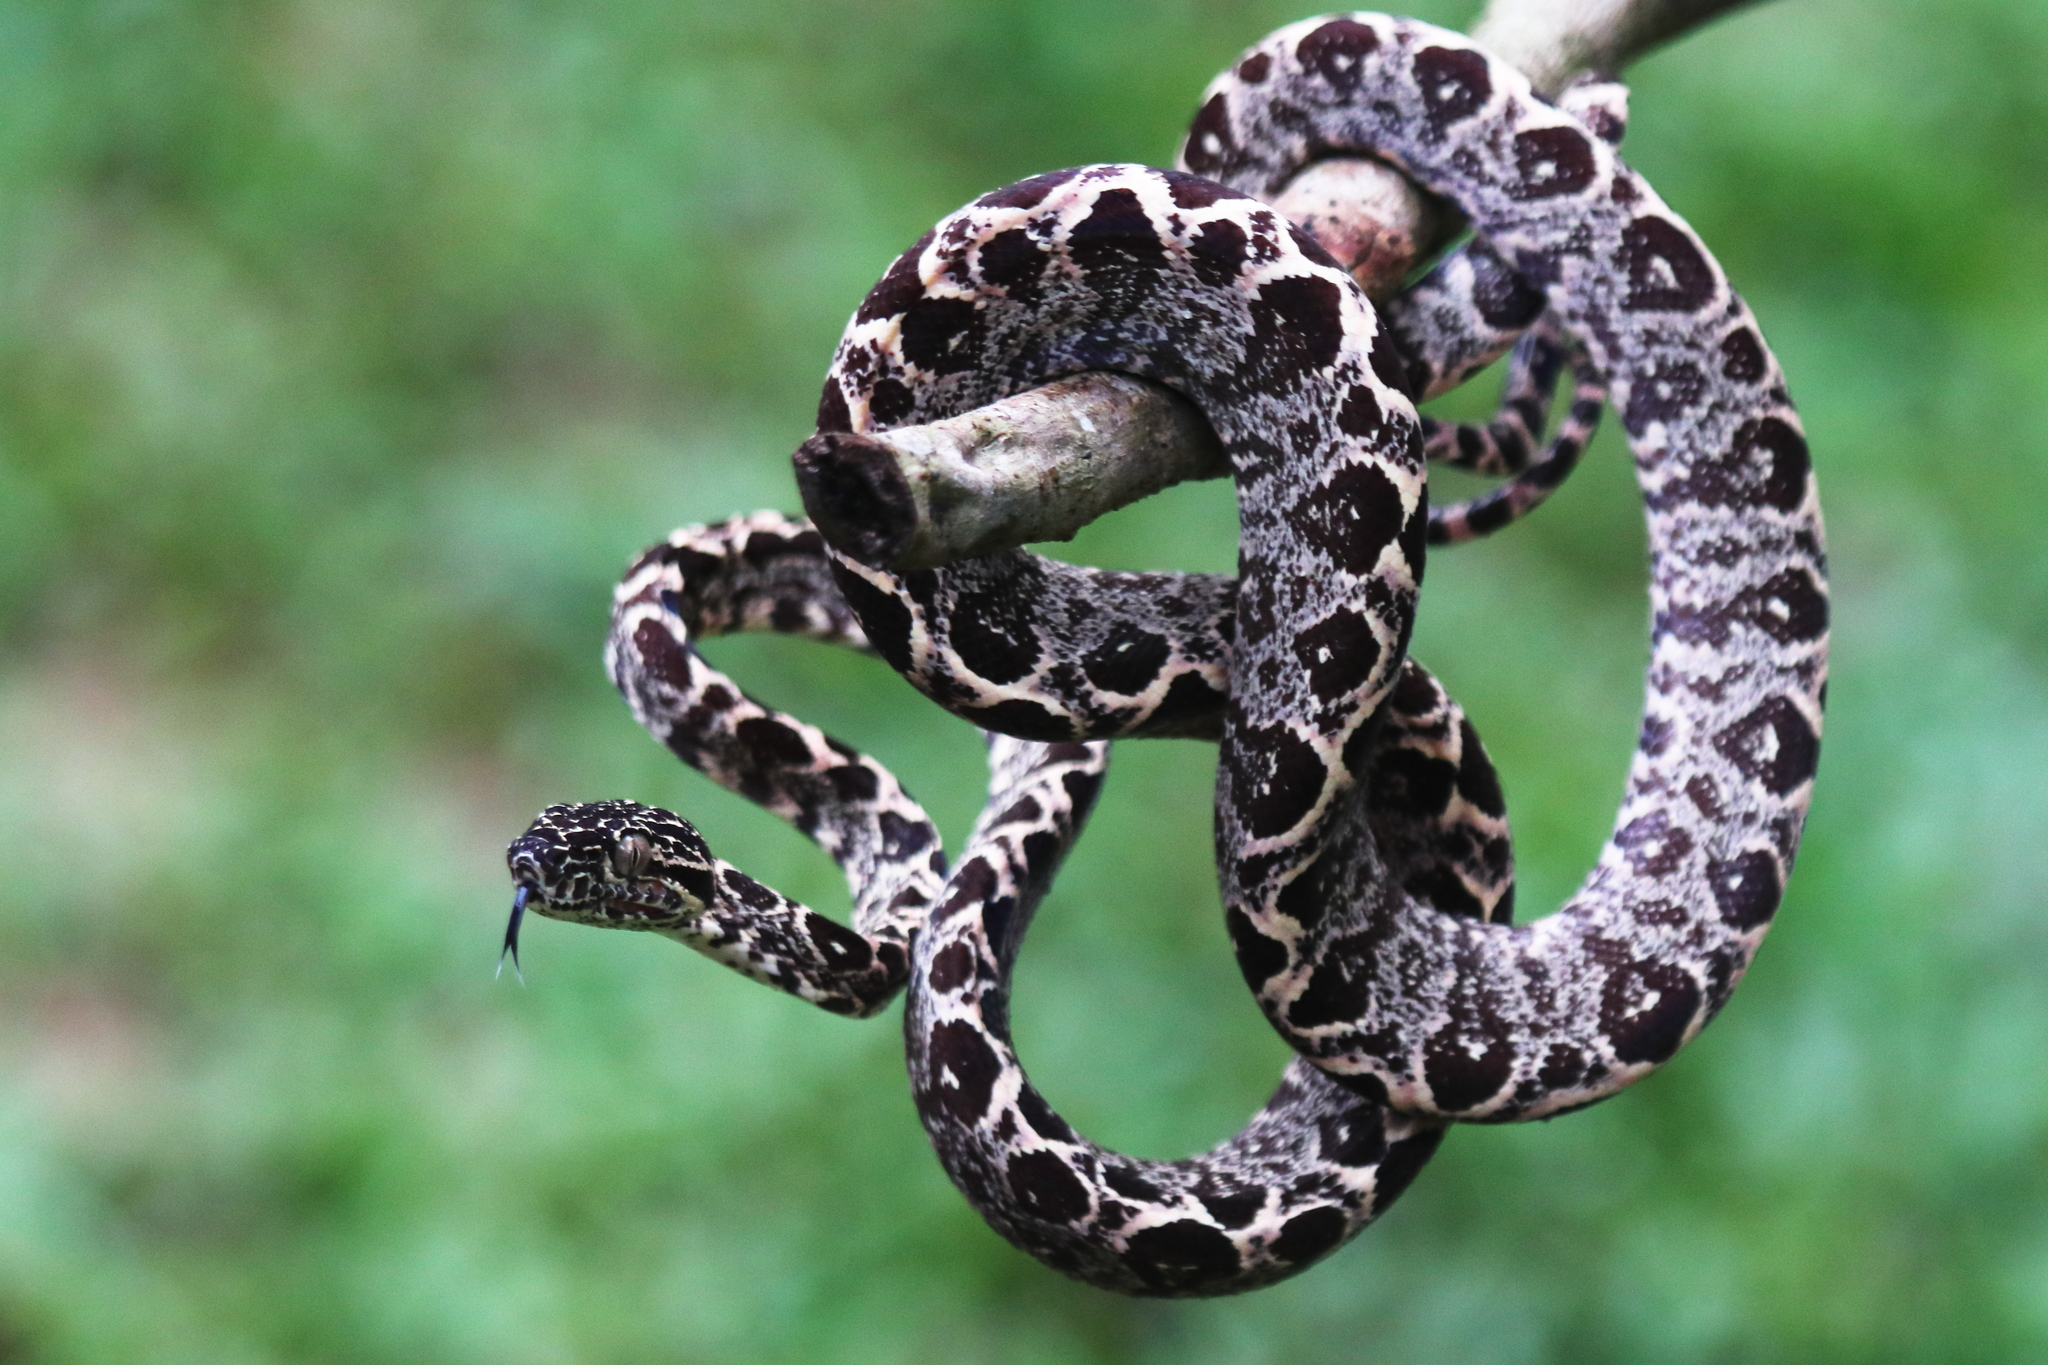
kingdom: Animalia
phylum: Chordata
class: Squamata
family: Boidae
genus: Corallus
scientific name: Corallus hortulana
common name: Garden tree boa
